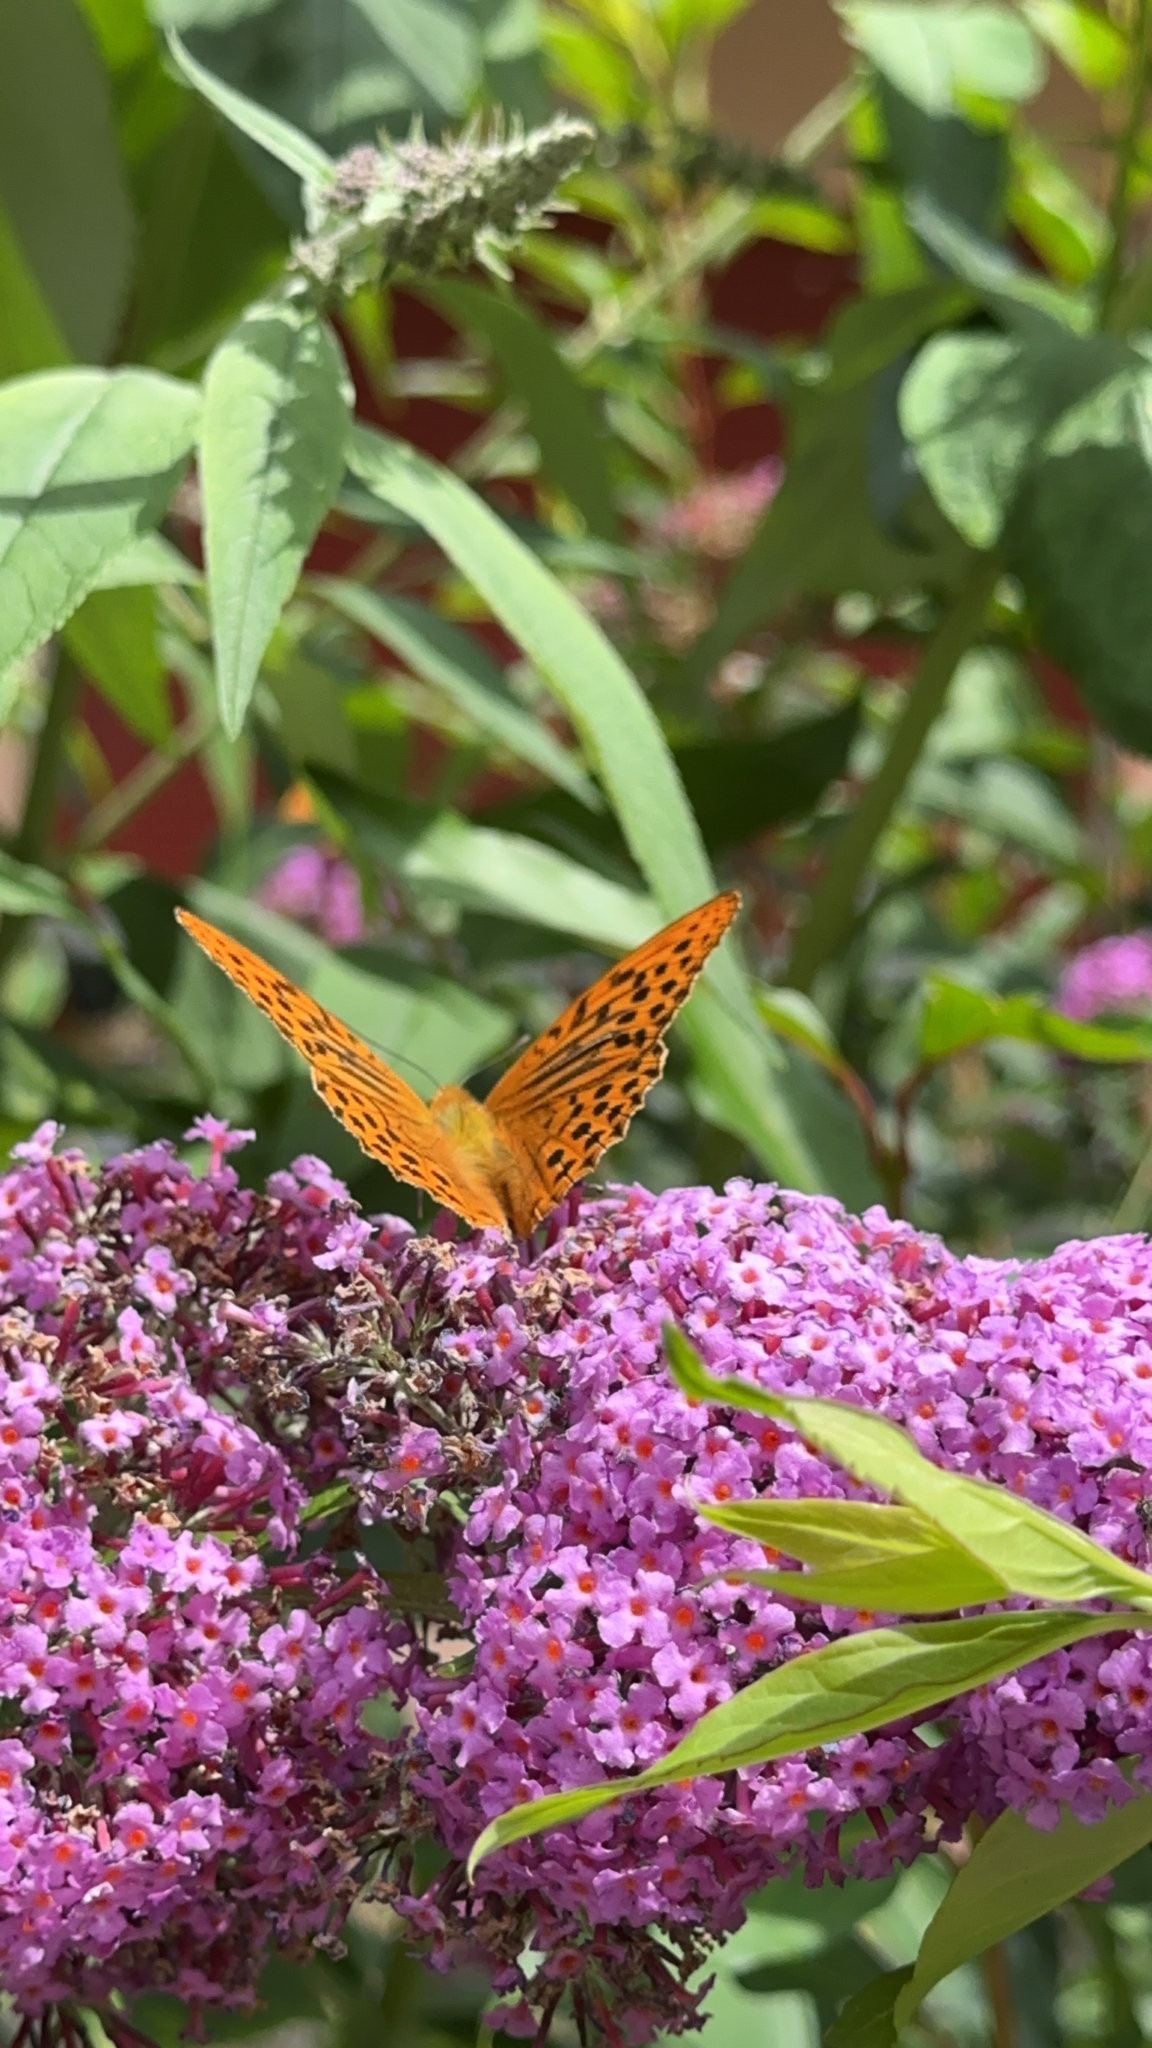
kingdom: Animalia
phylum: Arthropoda
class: Insecta
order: Lepidoptera
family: Nymphalidae
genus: Argynnis
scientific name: Argynnis paphia
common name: Silver-washed fritillary
